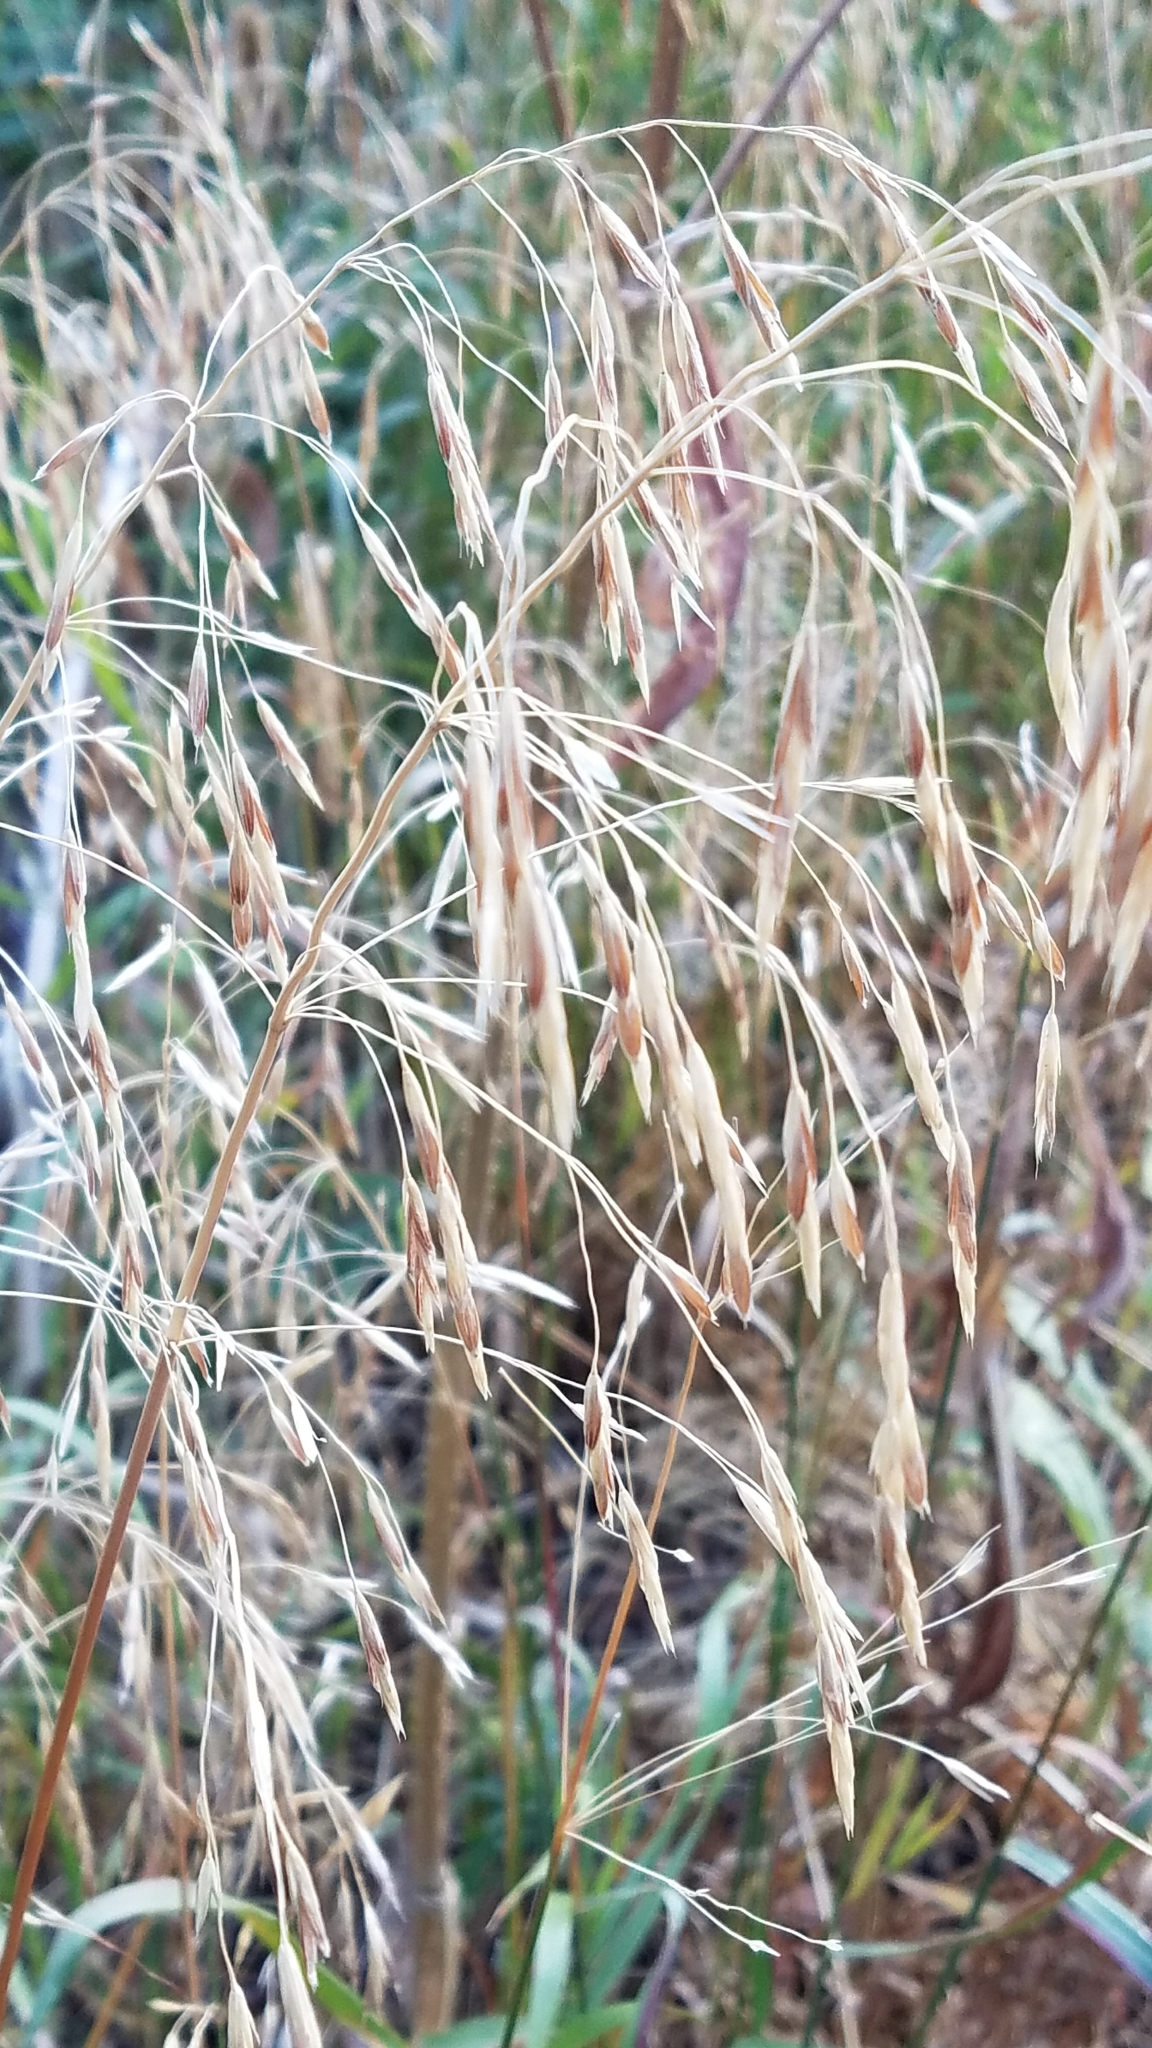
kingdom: Plantae
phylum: Tracheophyta
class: Liliopsida
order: Poales
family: Poaceae
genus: Bromus
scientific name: Bromus inermis
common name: Smooth brome
